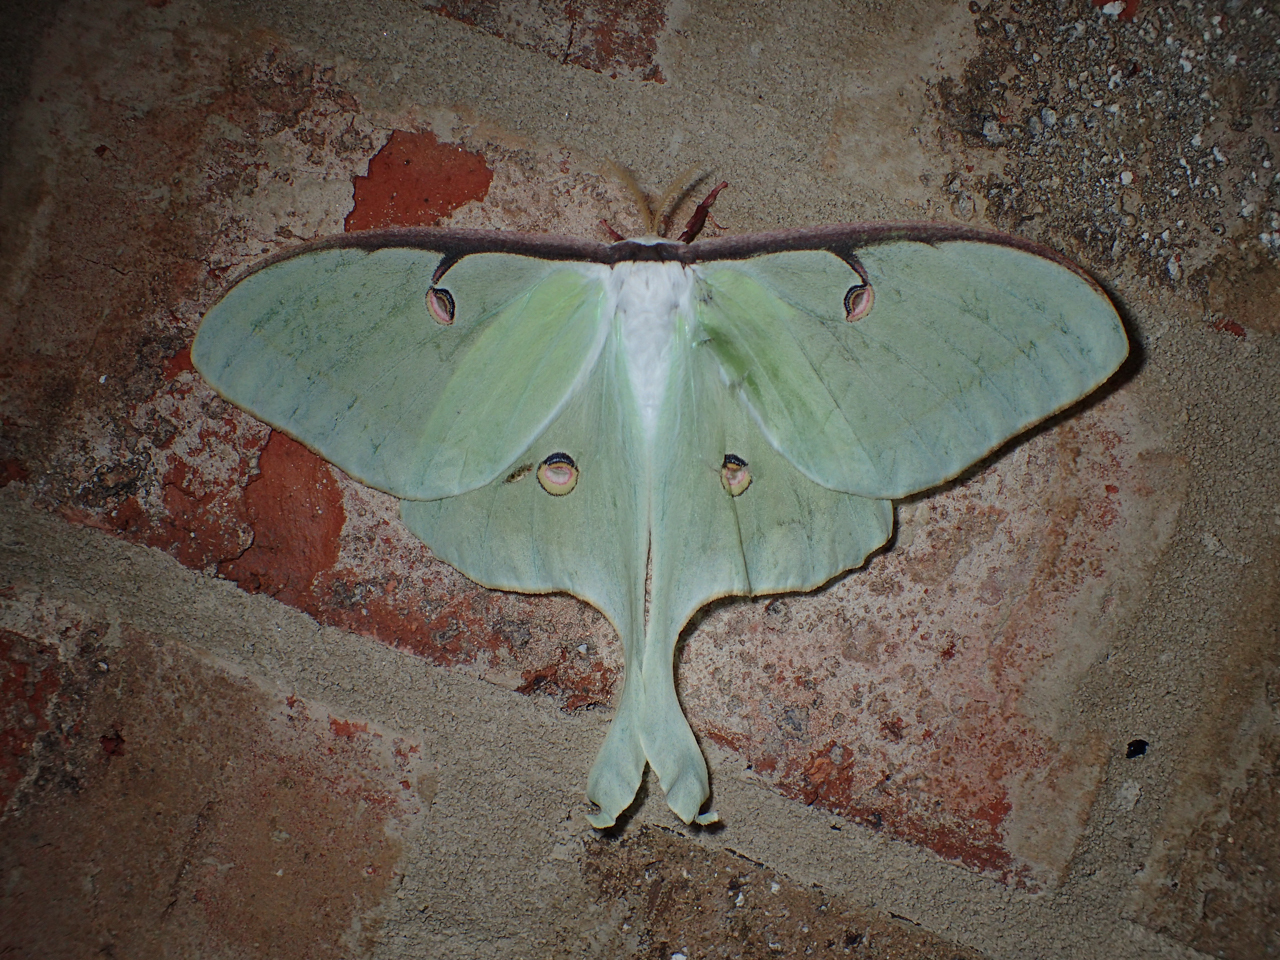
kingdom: Animalia
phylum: Arthropoda
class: Insecta
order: Lepidoptera
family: Saturniidae
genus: Actias
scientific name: Actias luna
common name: Luna moth
